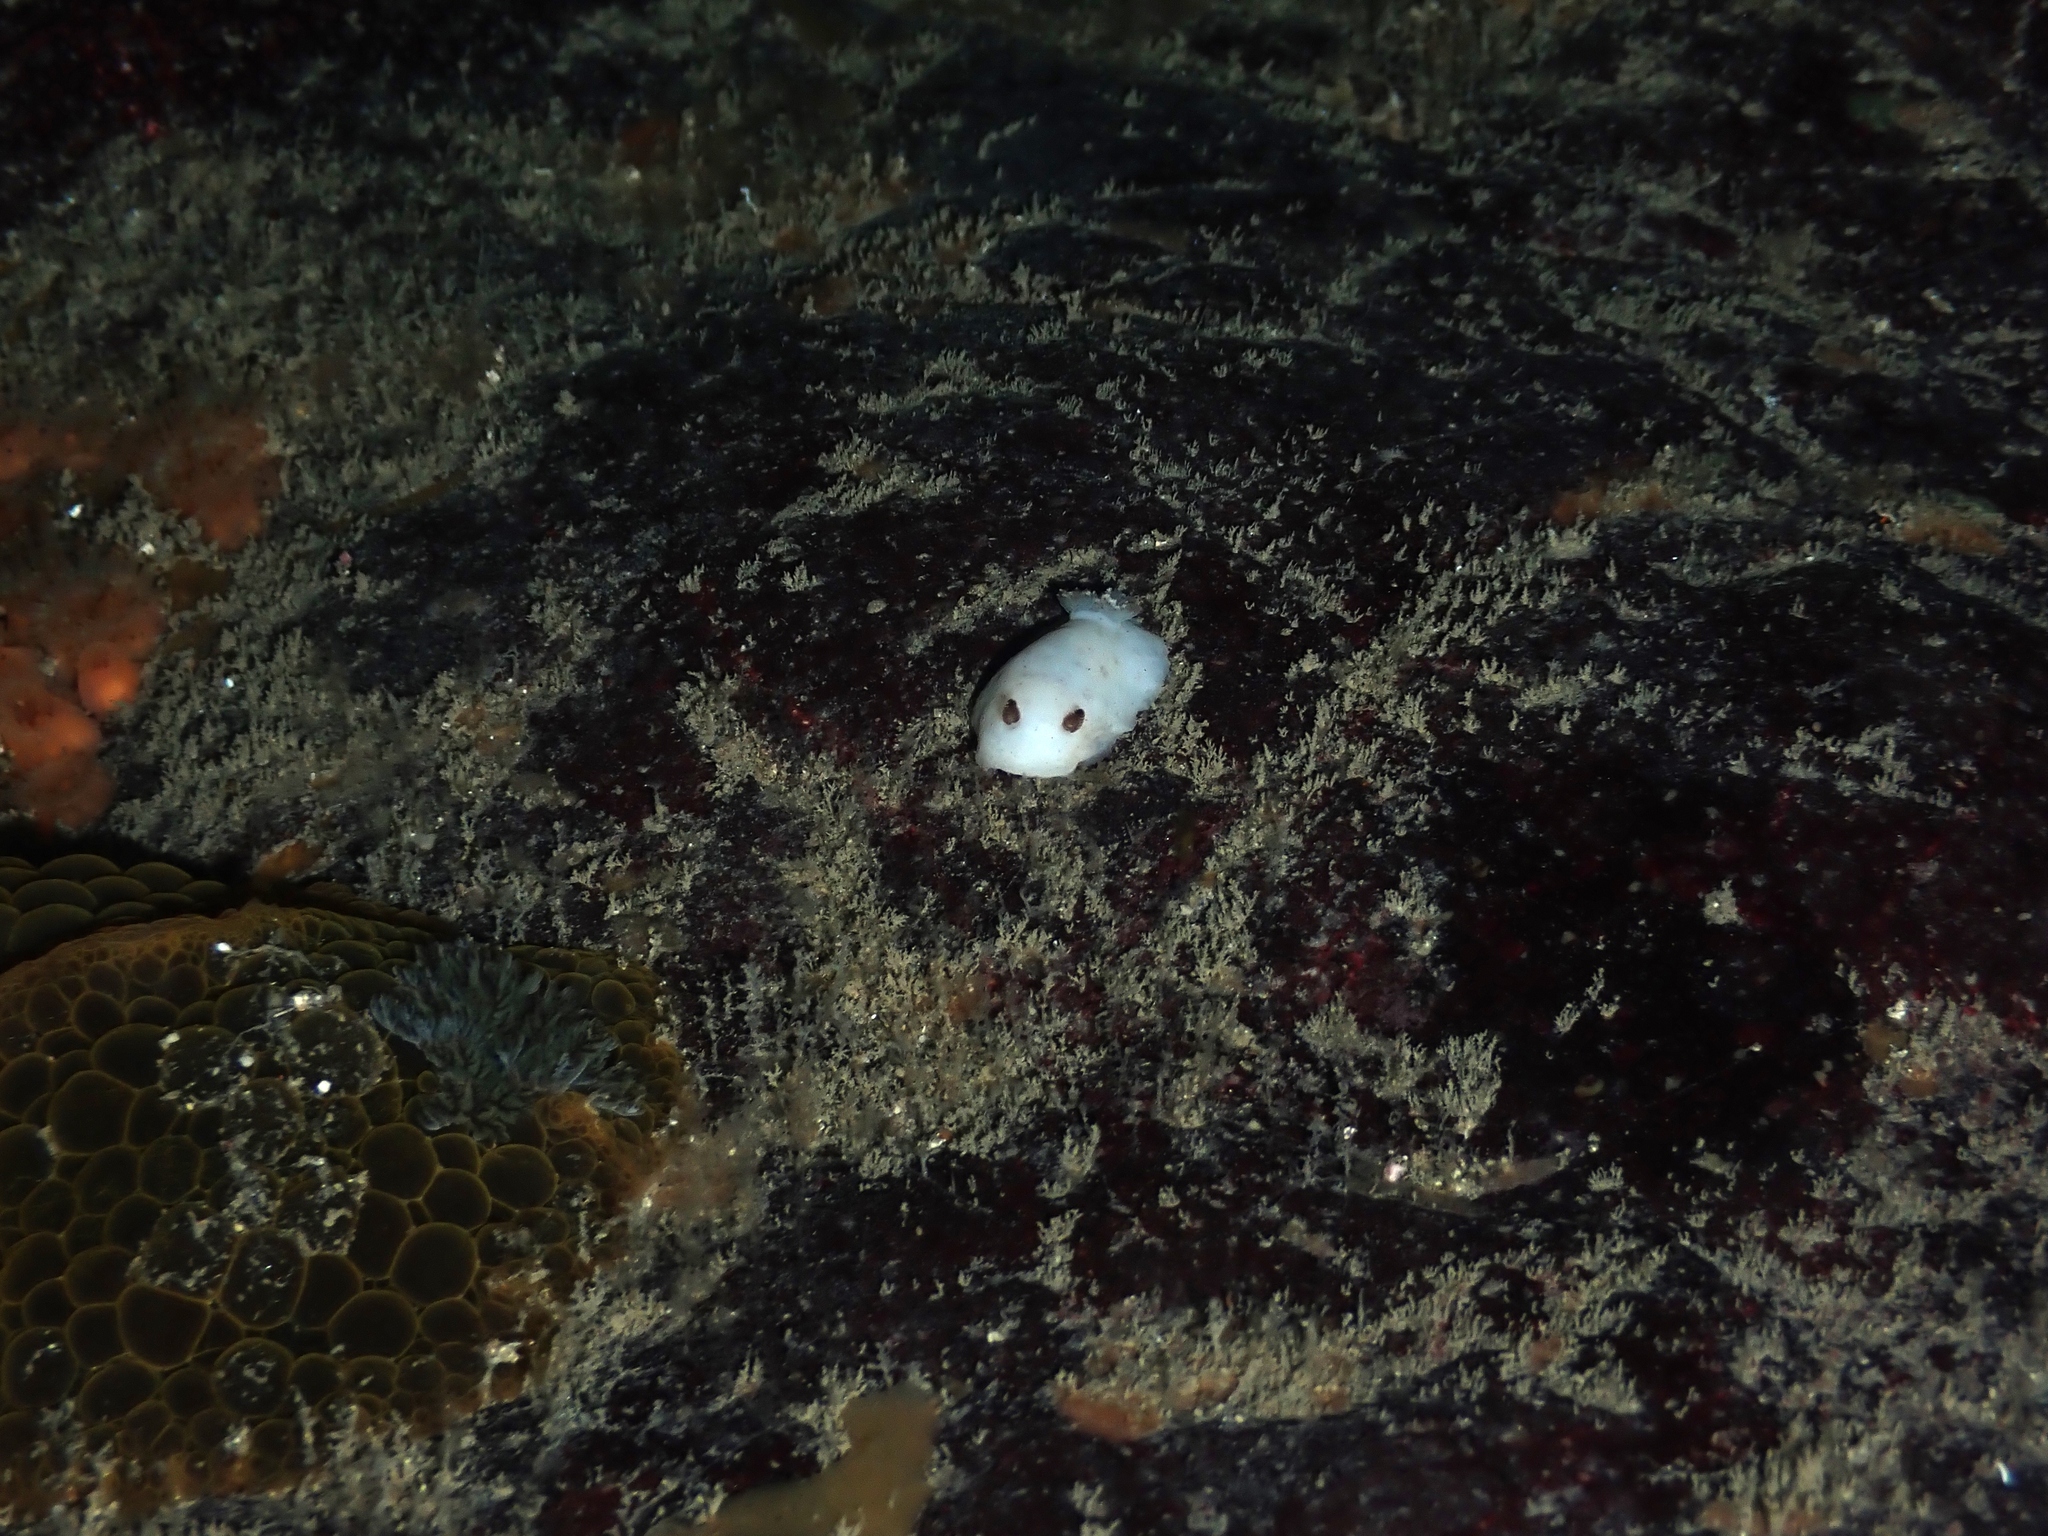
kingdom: Animalia
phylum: Mollusca
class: Gastropoda
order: Nudibranchia
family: Discodorididae
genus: Paradoris
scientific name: Paradoris dubia
